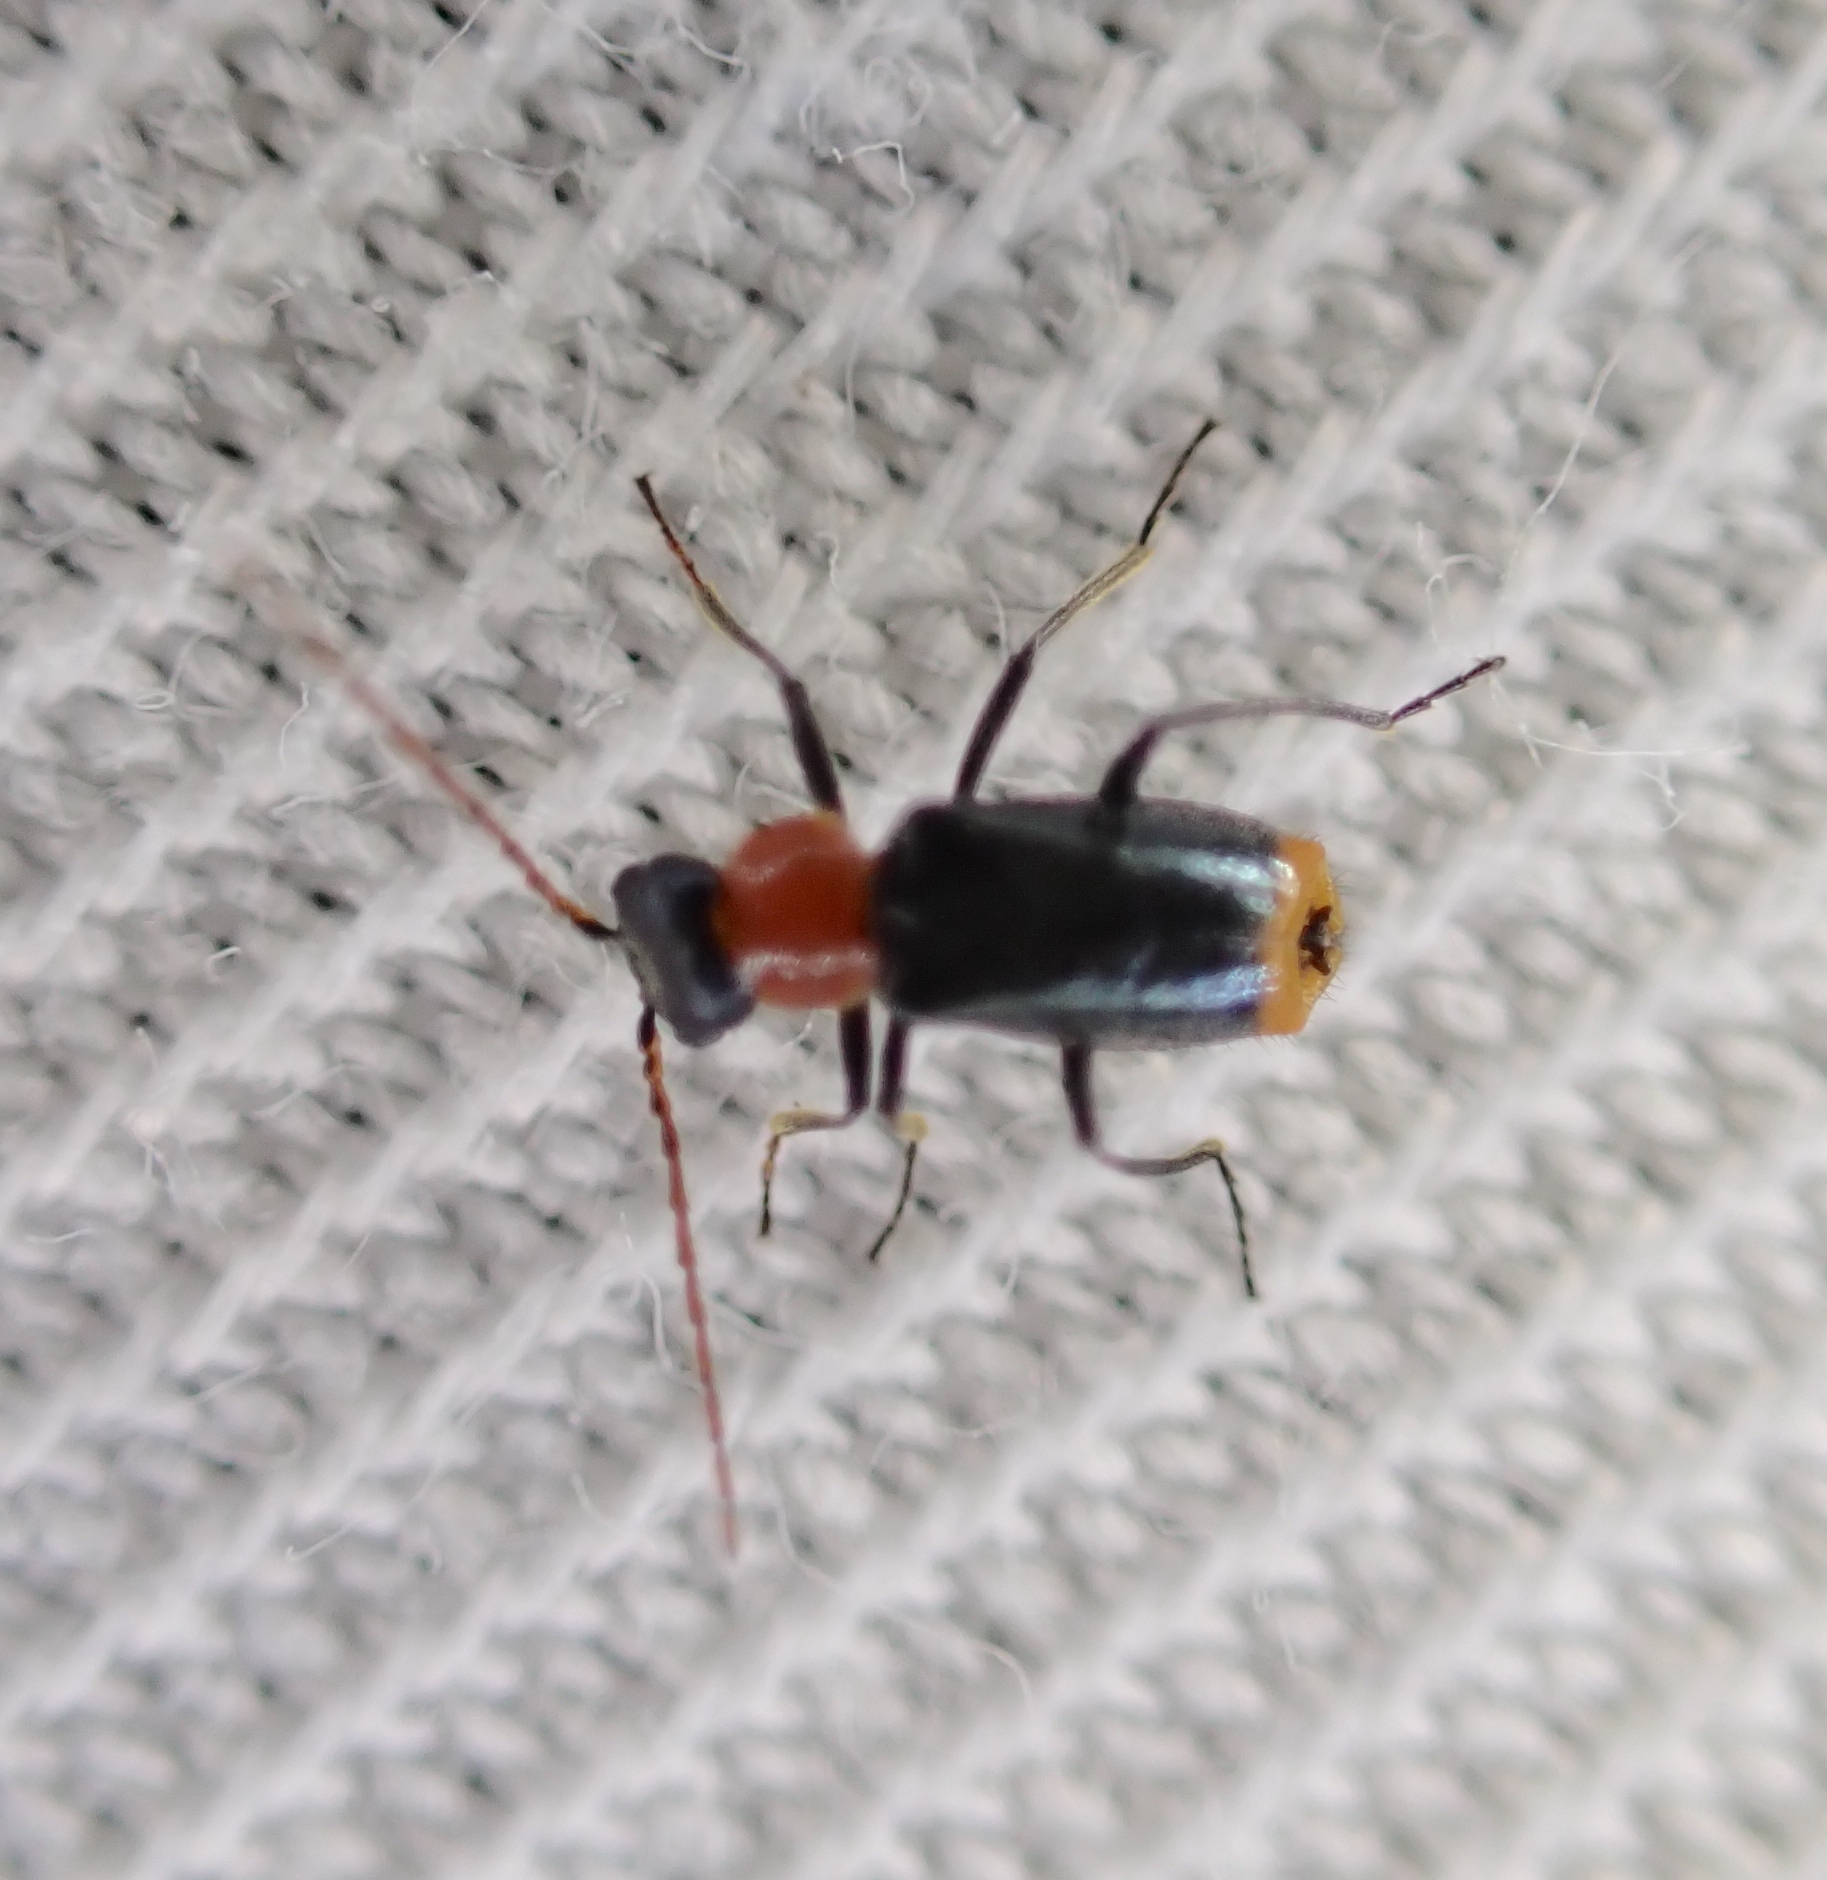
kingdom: Animalia
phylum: Arthropoda
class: Insecta
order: Coleoptera
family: Melyridae
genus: Axinotarsus
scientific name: Axinotarsus ruficollis
